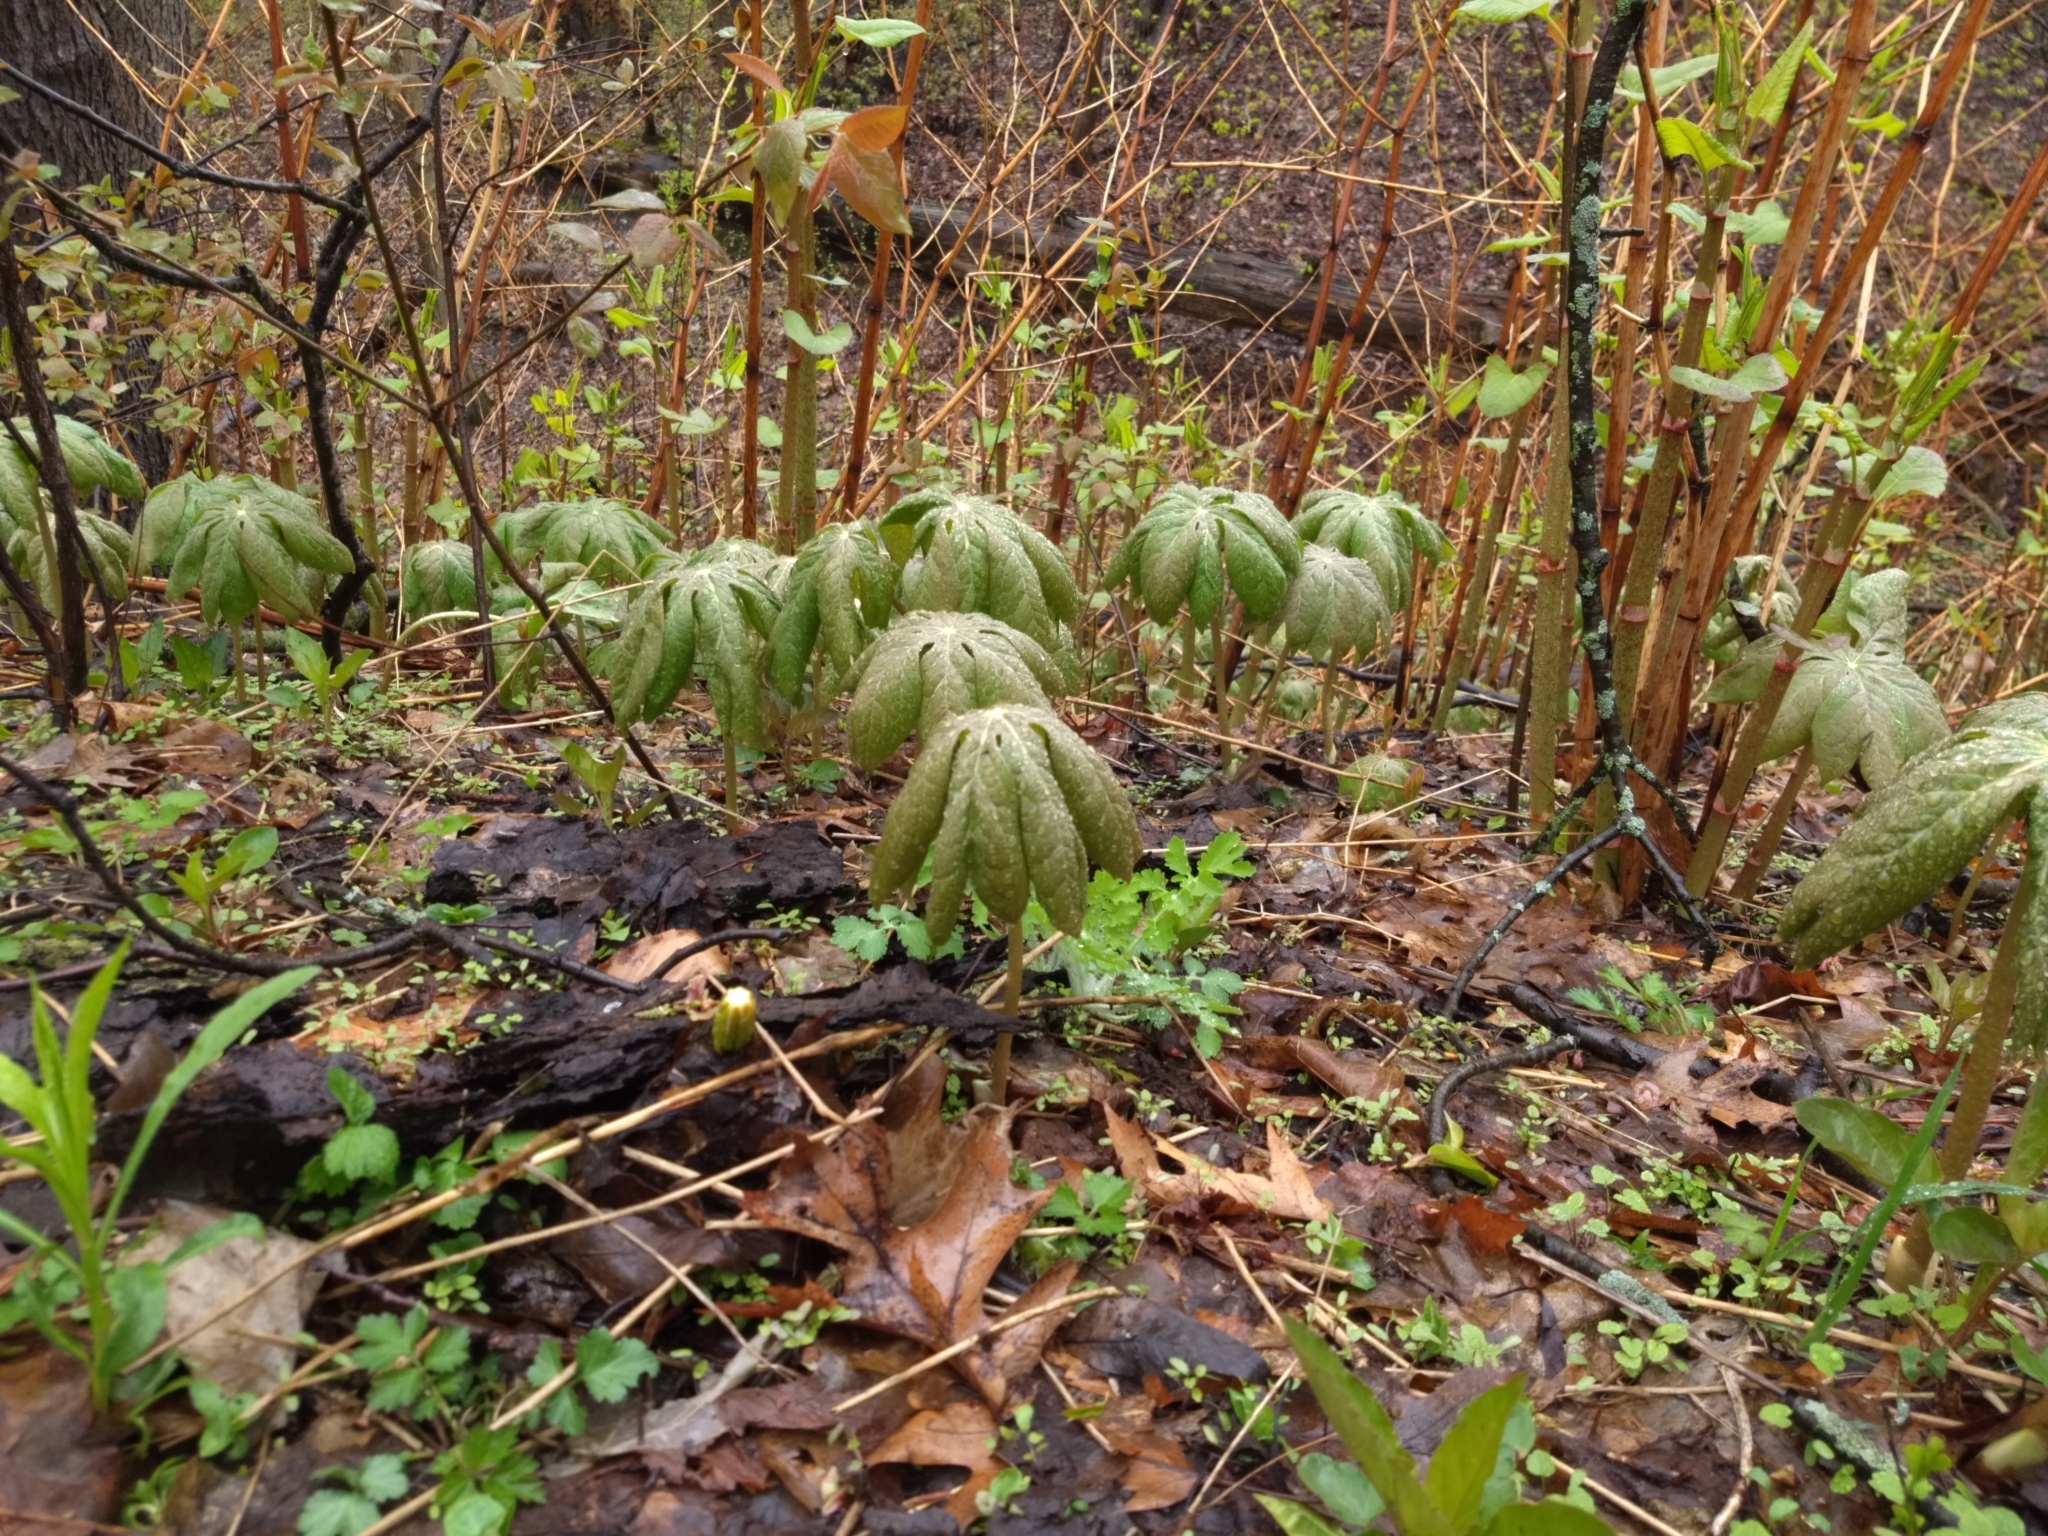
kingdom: Plantae
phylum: Tracheophyta
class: Magnoliopsida
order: Ranunculales
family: Berberidaceae
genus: Podophyllum
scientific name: Podophyllum peltatum
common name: Wild mandrake
